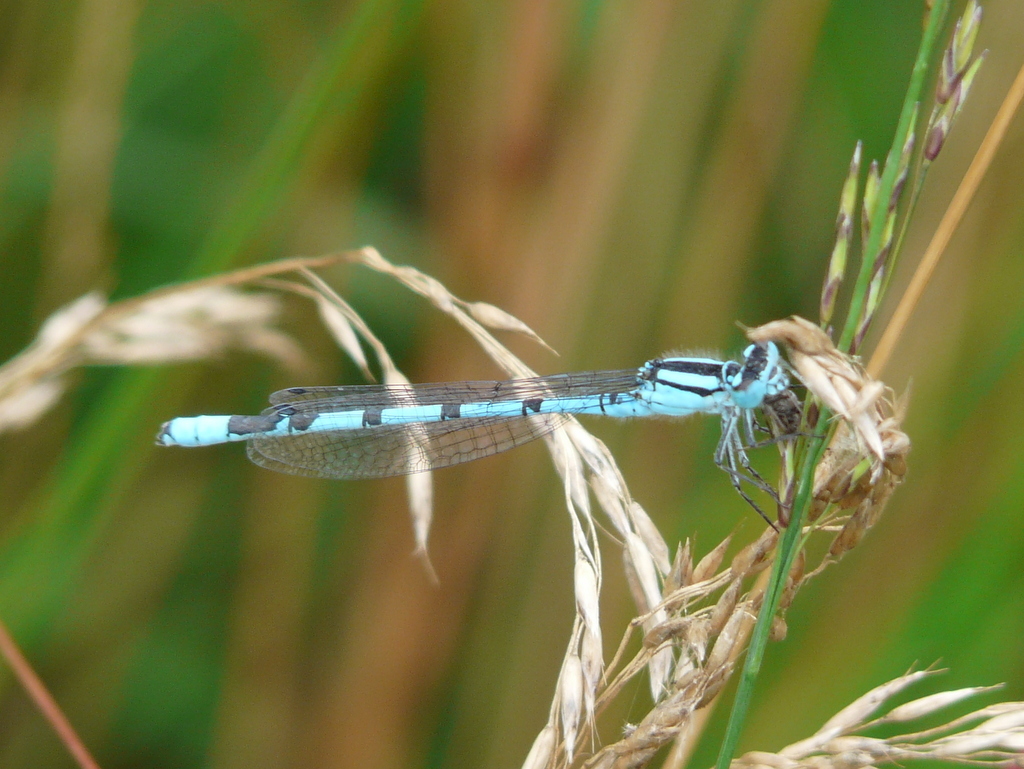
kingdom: Animalia
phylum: Arthropoda
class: Insecta
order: Odonata
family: Coenagrionidae
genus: Enallagma
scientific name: Enallagma cyathigerum
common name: Common blue damselfly
